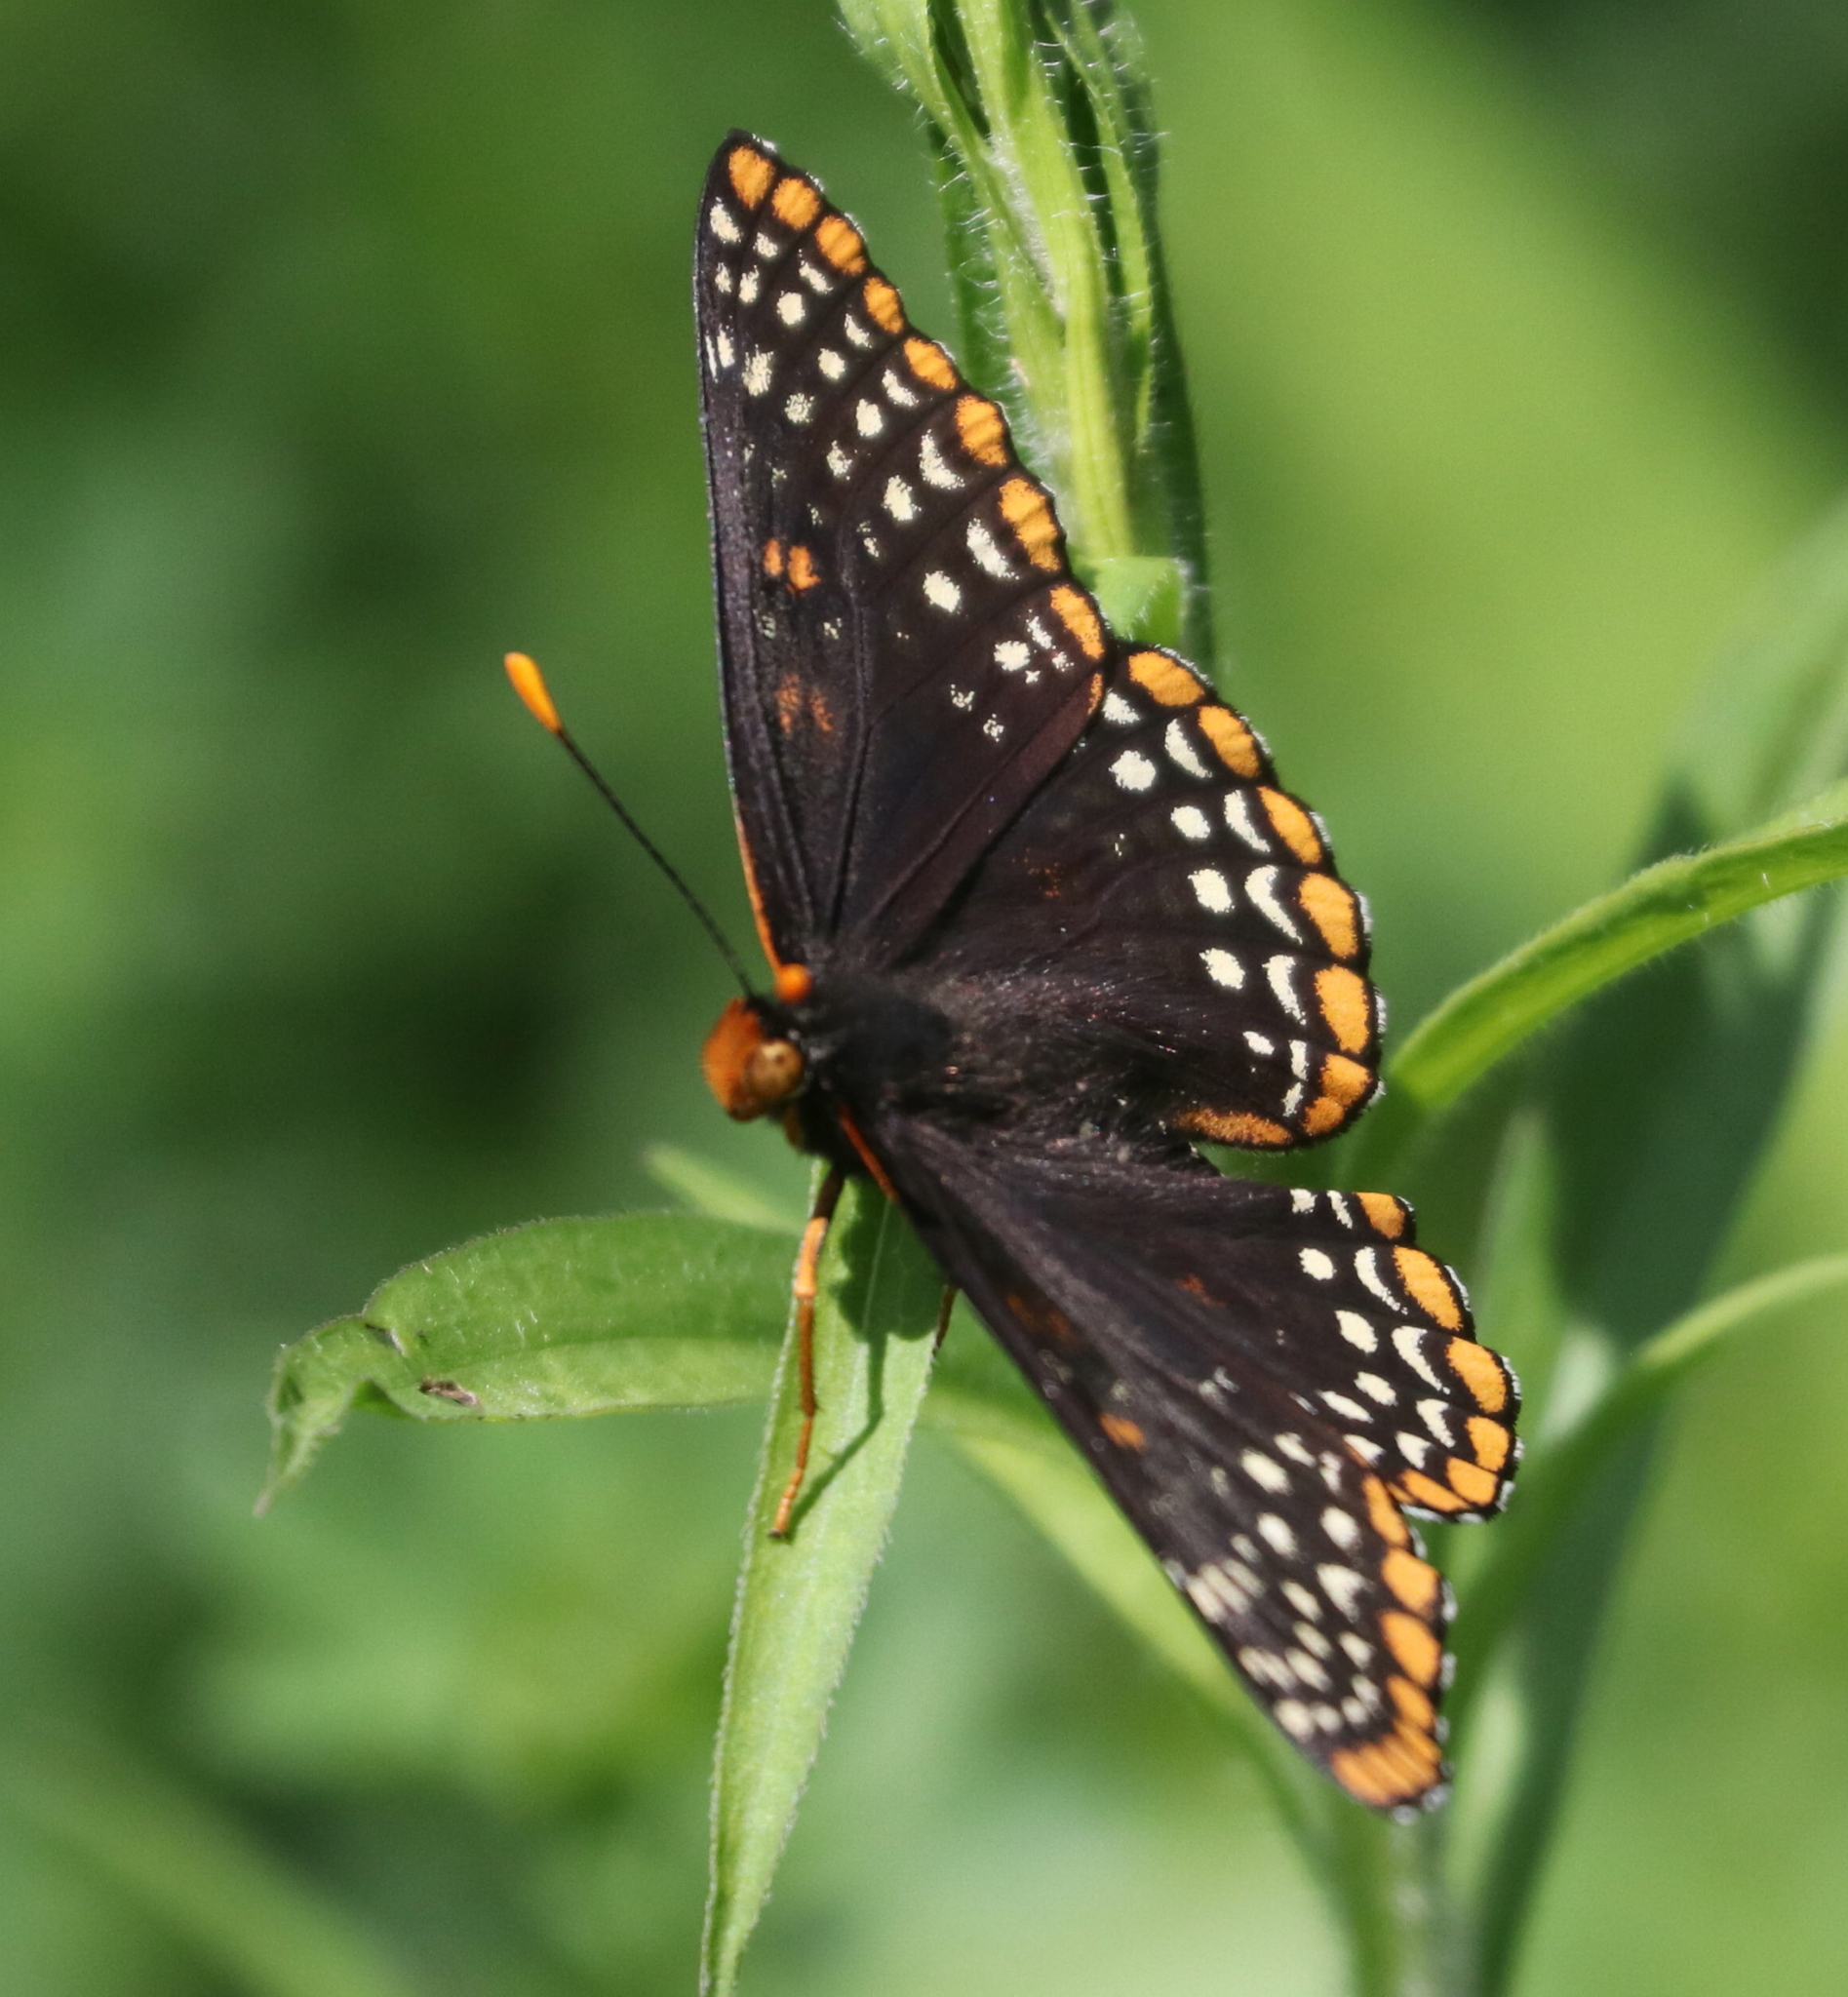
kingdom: Animalia
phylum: Arthropoda
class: Insecta
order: Lepidoptera
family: Nymphalidae
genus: Euphydryas
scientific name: Euphydryas phaeton
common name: Baltimore checkerspot
